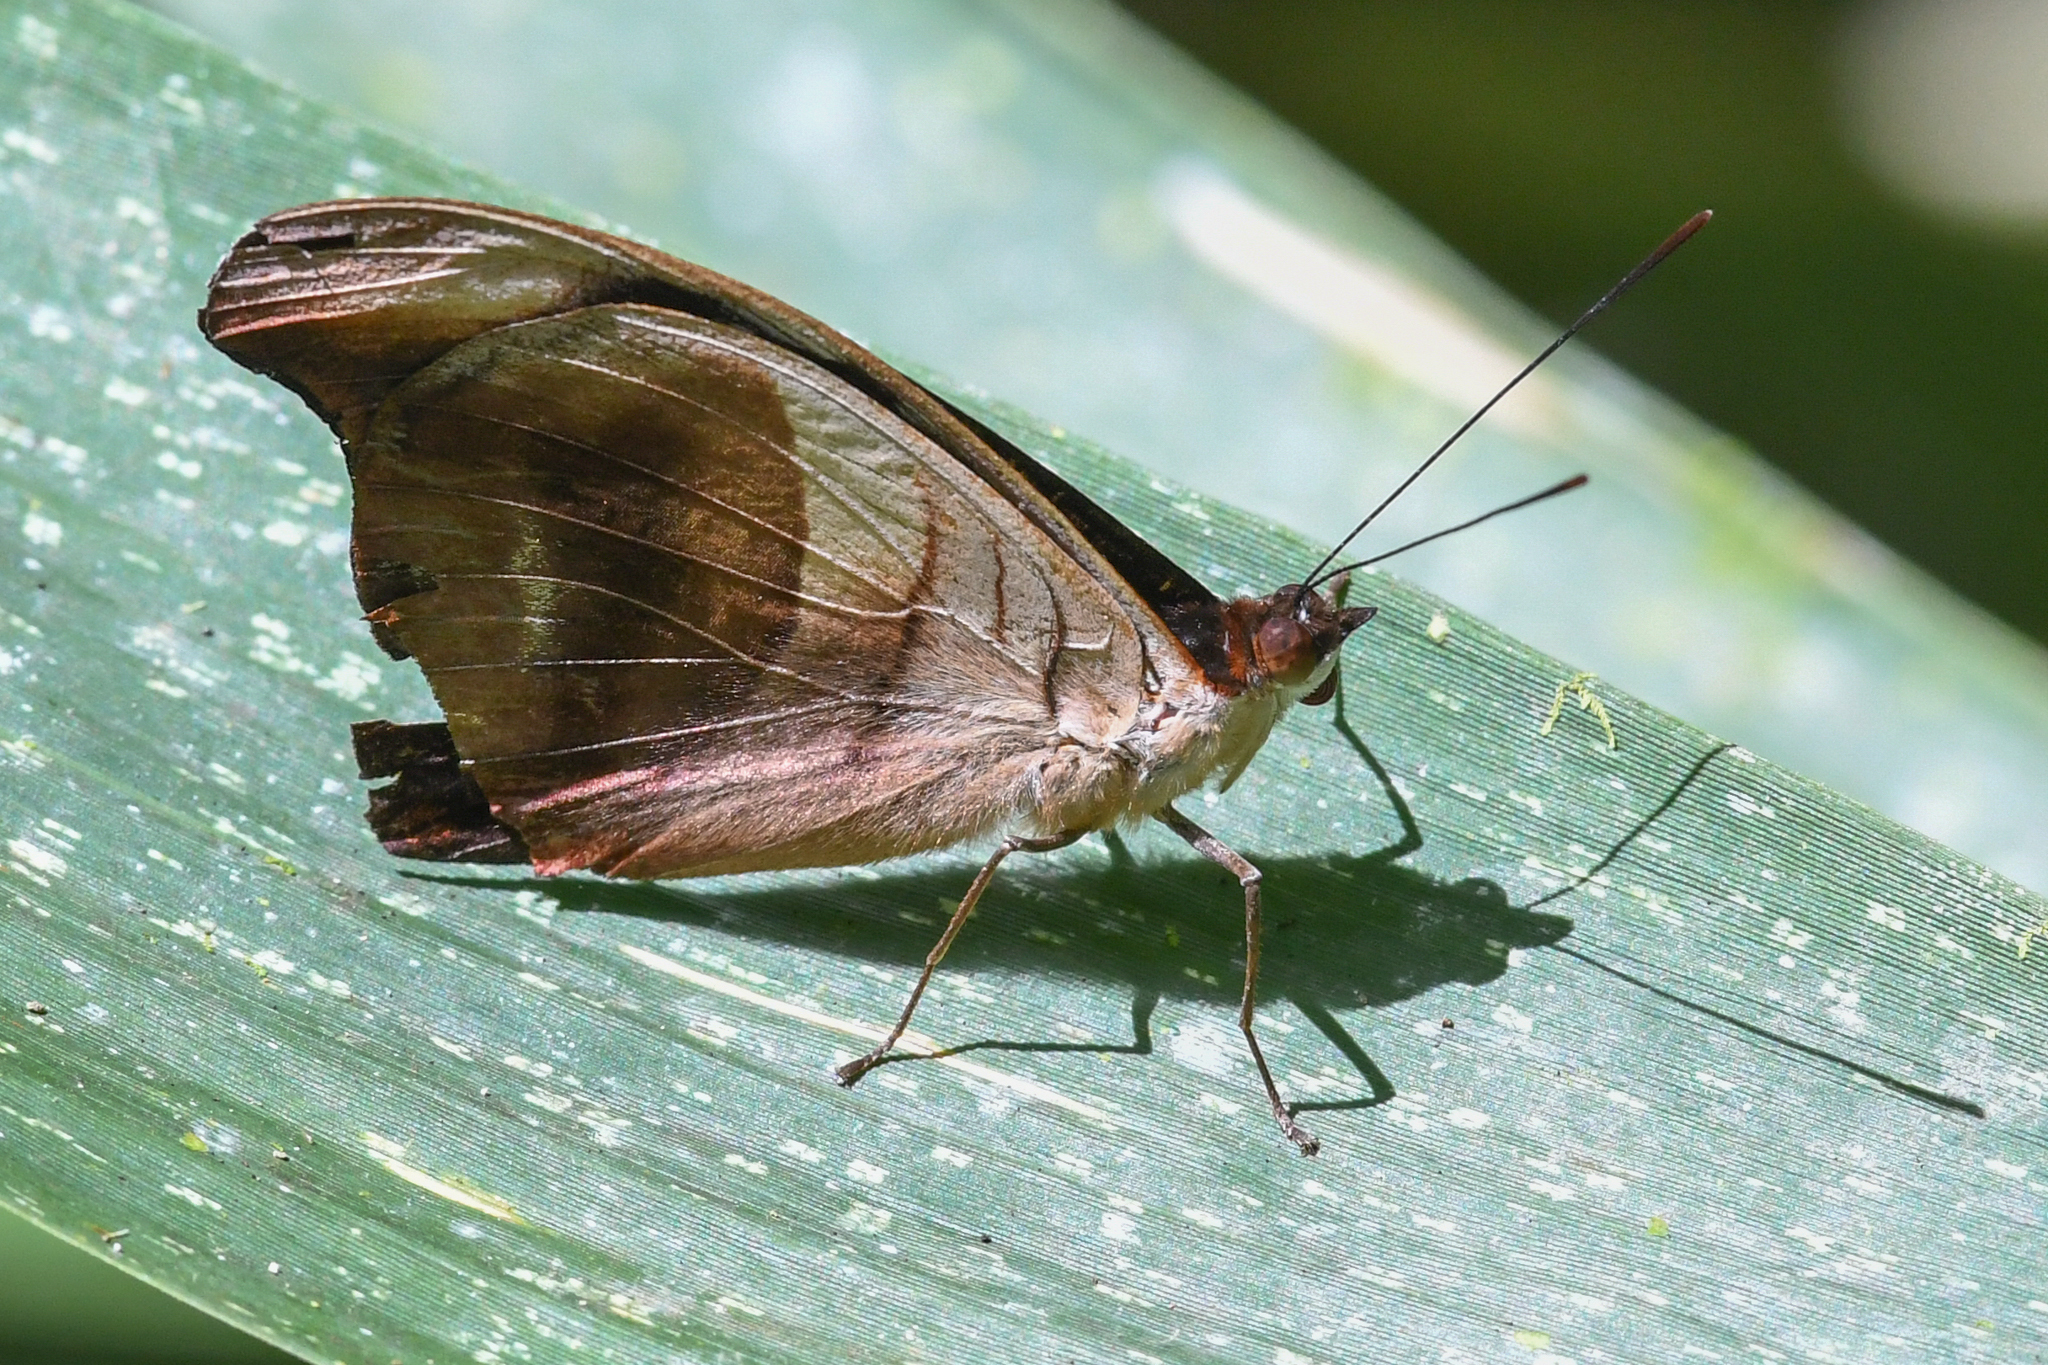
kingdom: Animalia
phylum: Arthropoda
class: Insecta
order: Lepidoptera
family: Nymphalidae
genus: Catonephele
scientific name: Catonephele chromis
